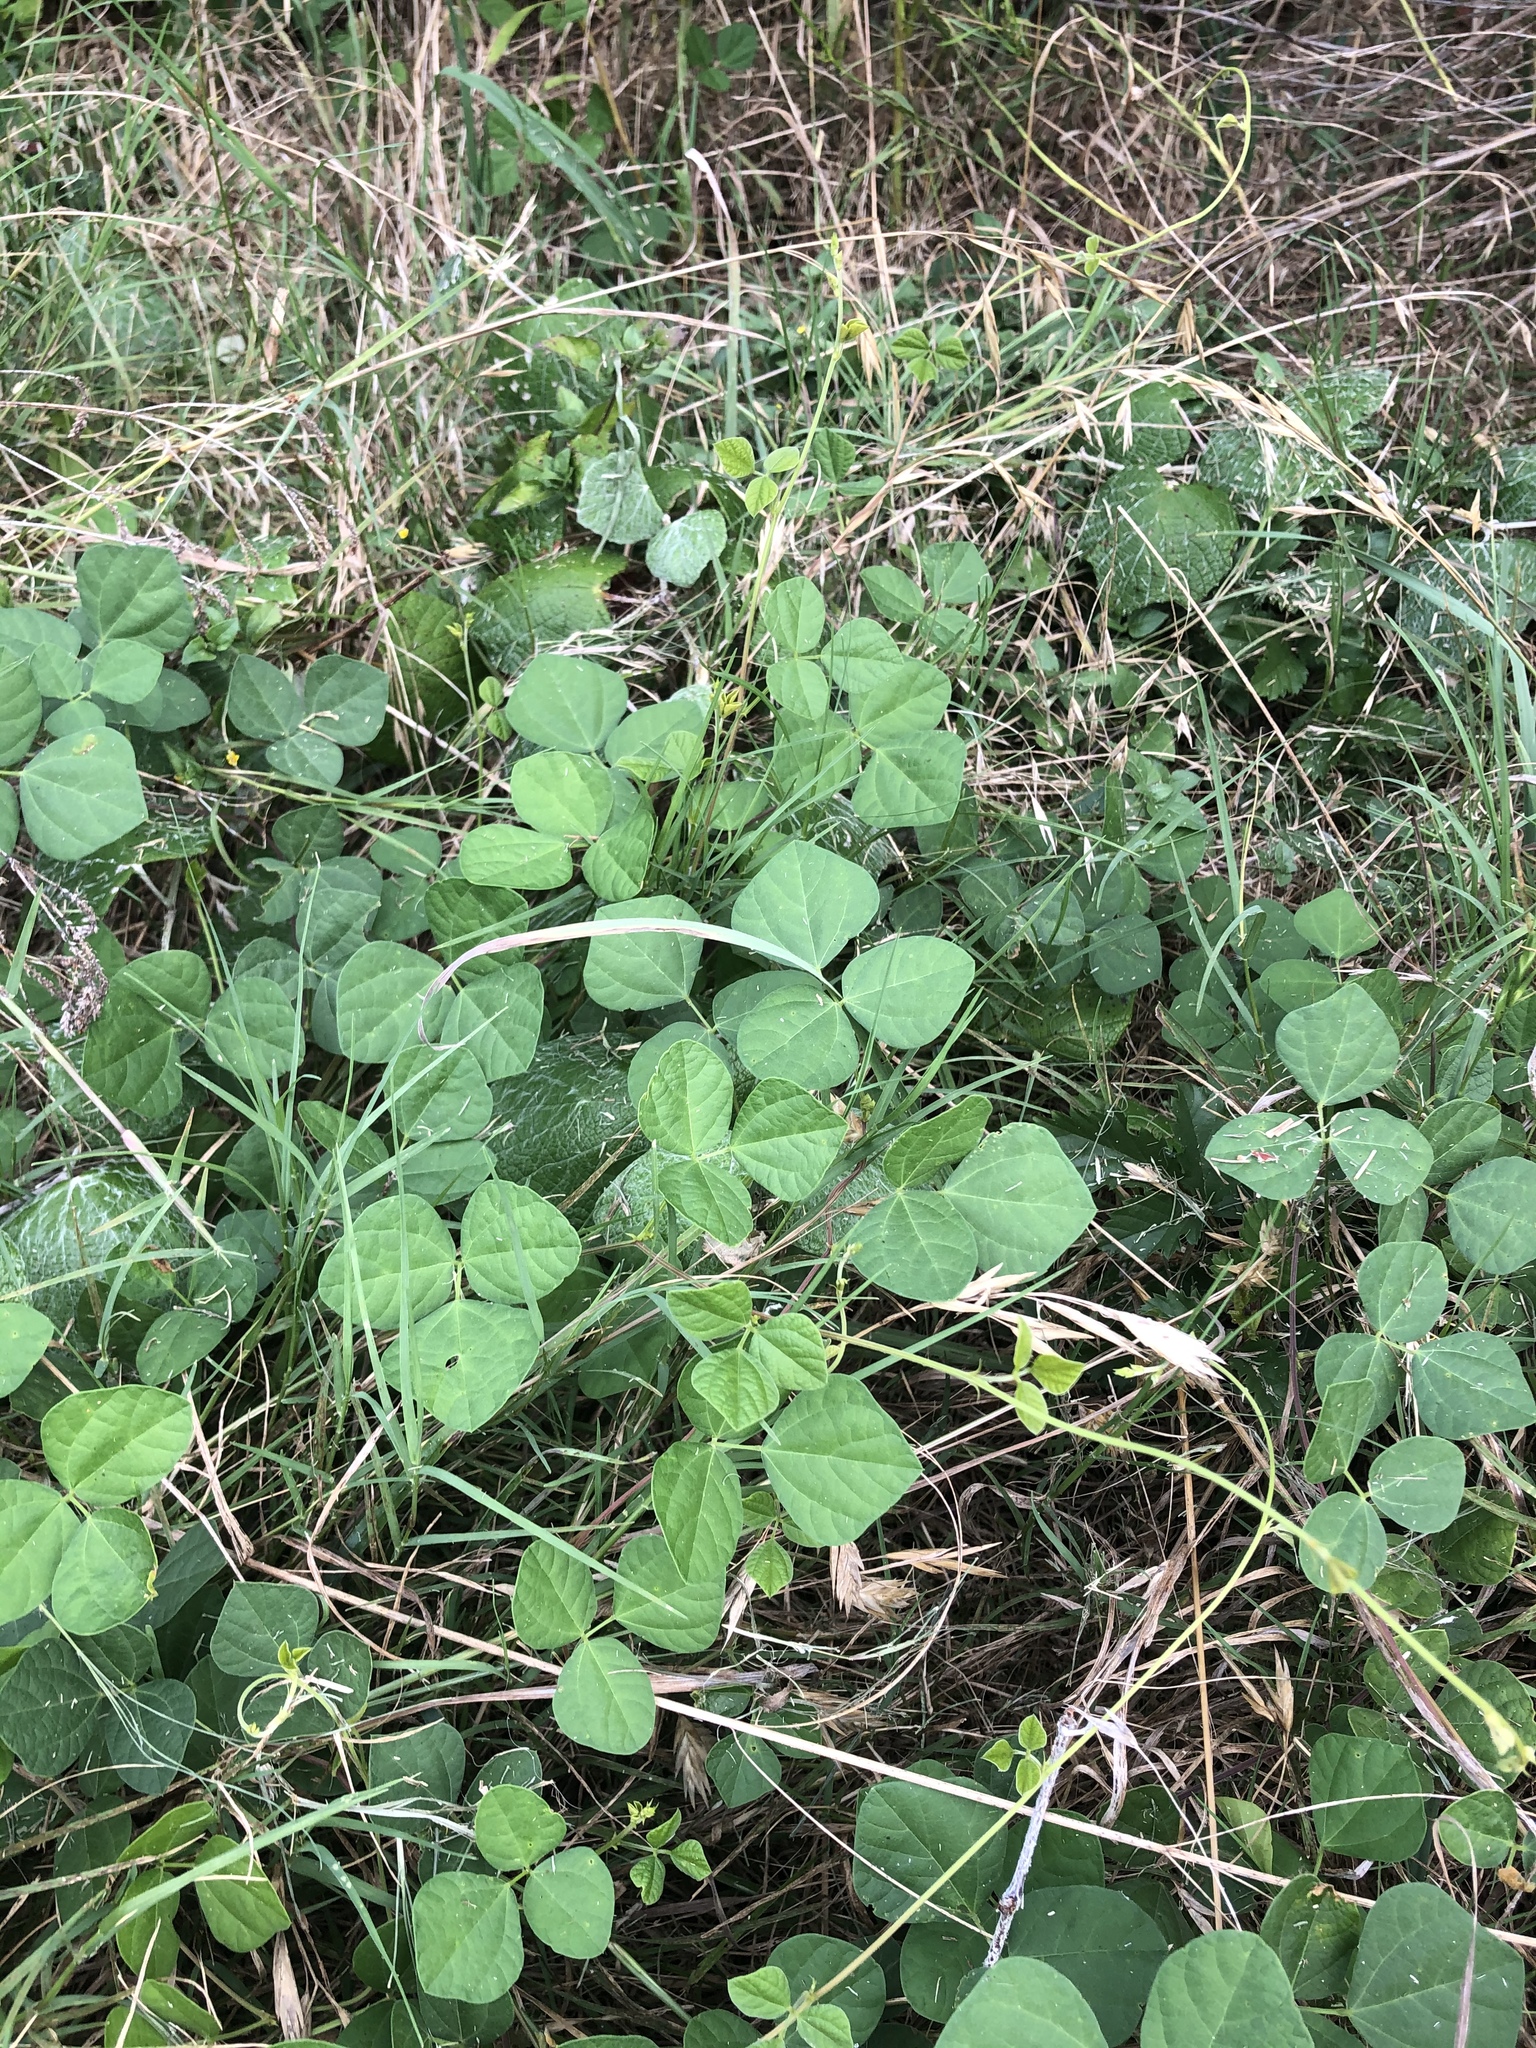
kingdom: Plantae
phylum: Tracheophyta
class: Magnoliopsida
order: Fabales
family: Fabaceae
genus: Rhynchosia
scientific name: Rhynchosia minima
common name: Least snoutbean
